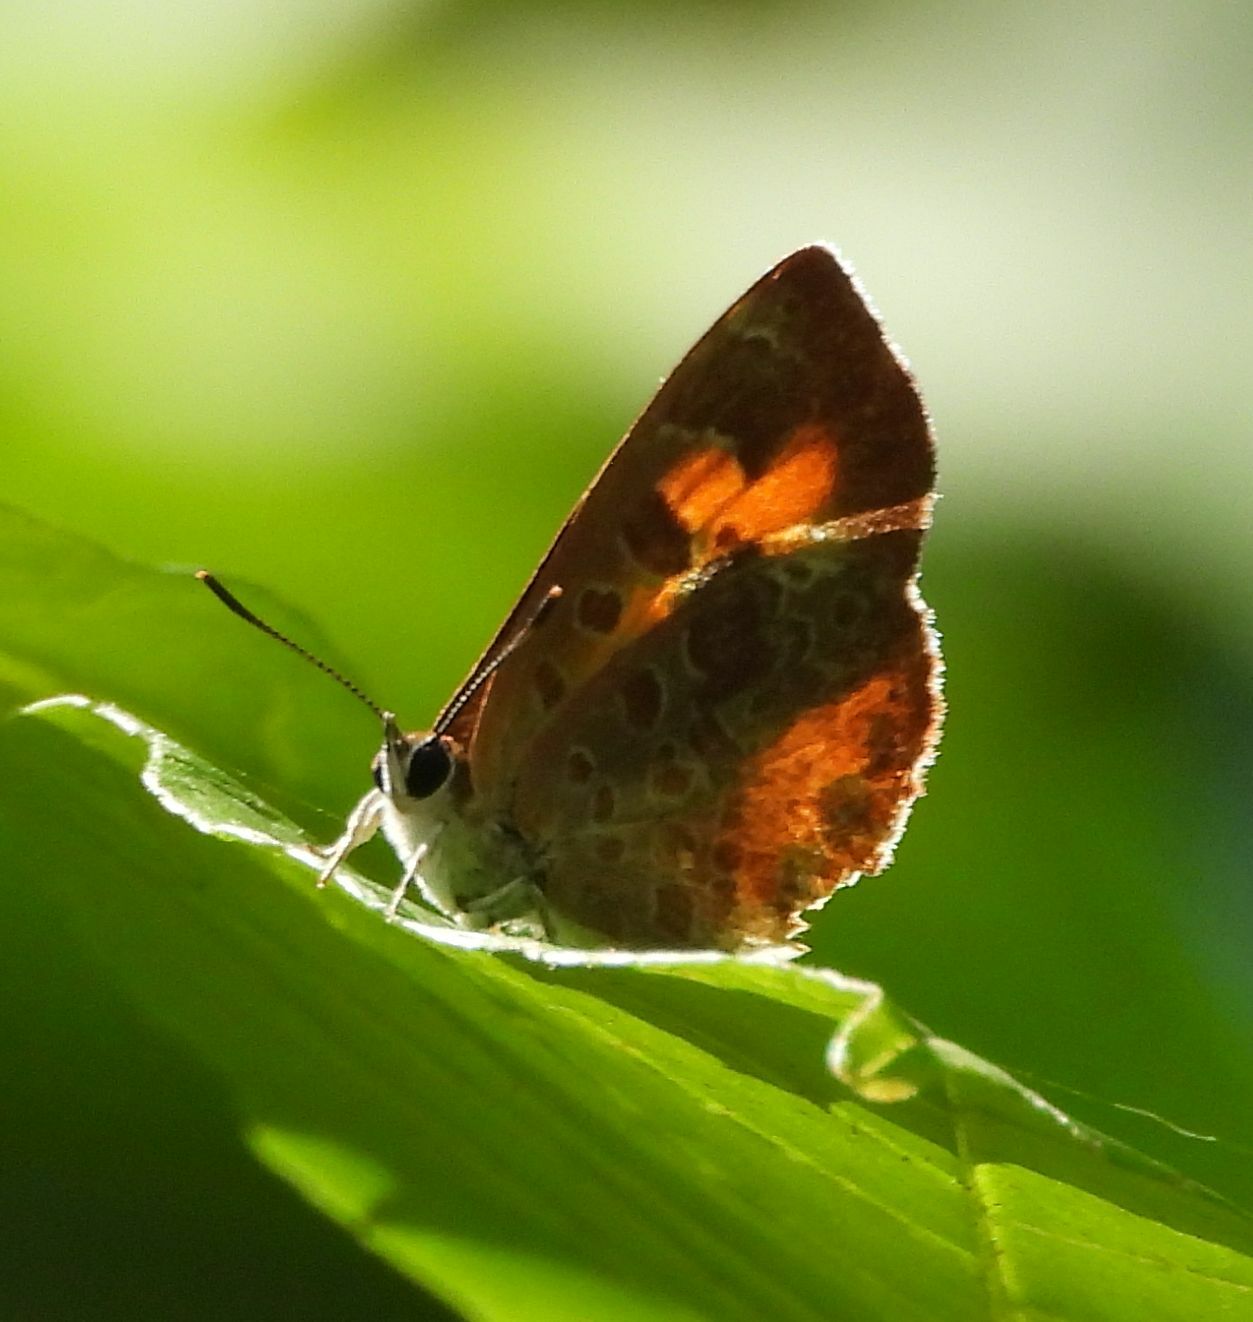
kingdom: Animalia
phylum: Arthropoda
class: Insecta
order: Lepidoptera
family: Lycaenidae
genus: Feniseca
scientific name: Feniseca tarquinius
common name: Harvester
